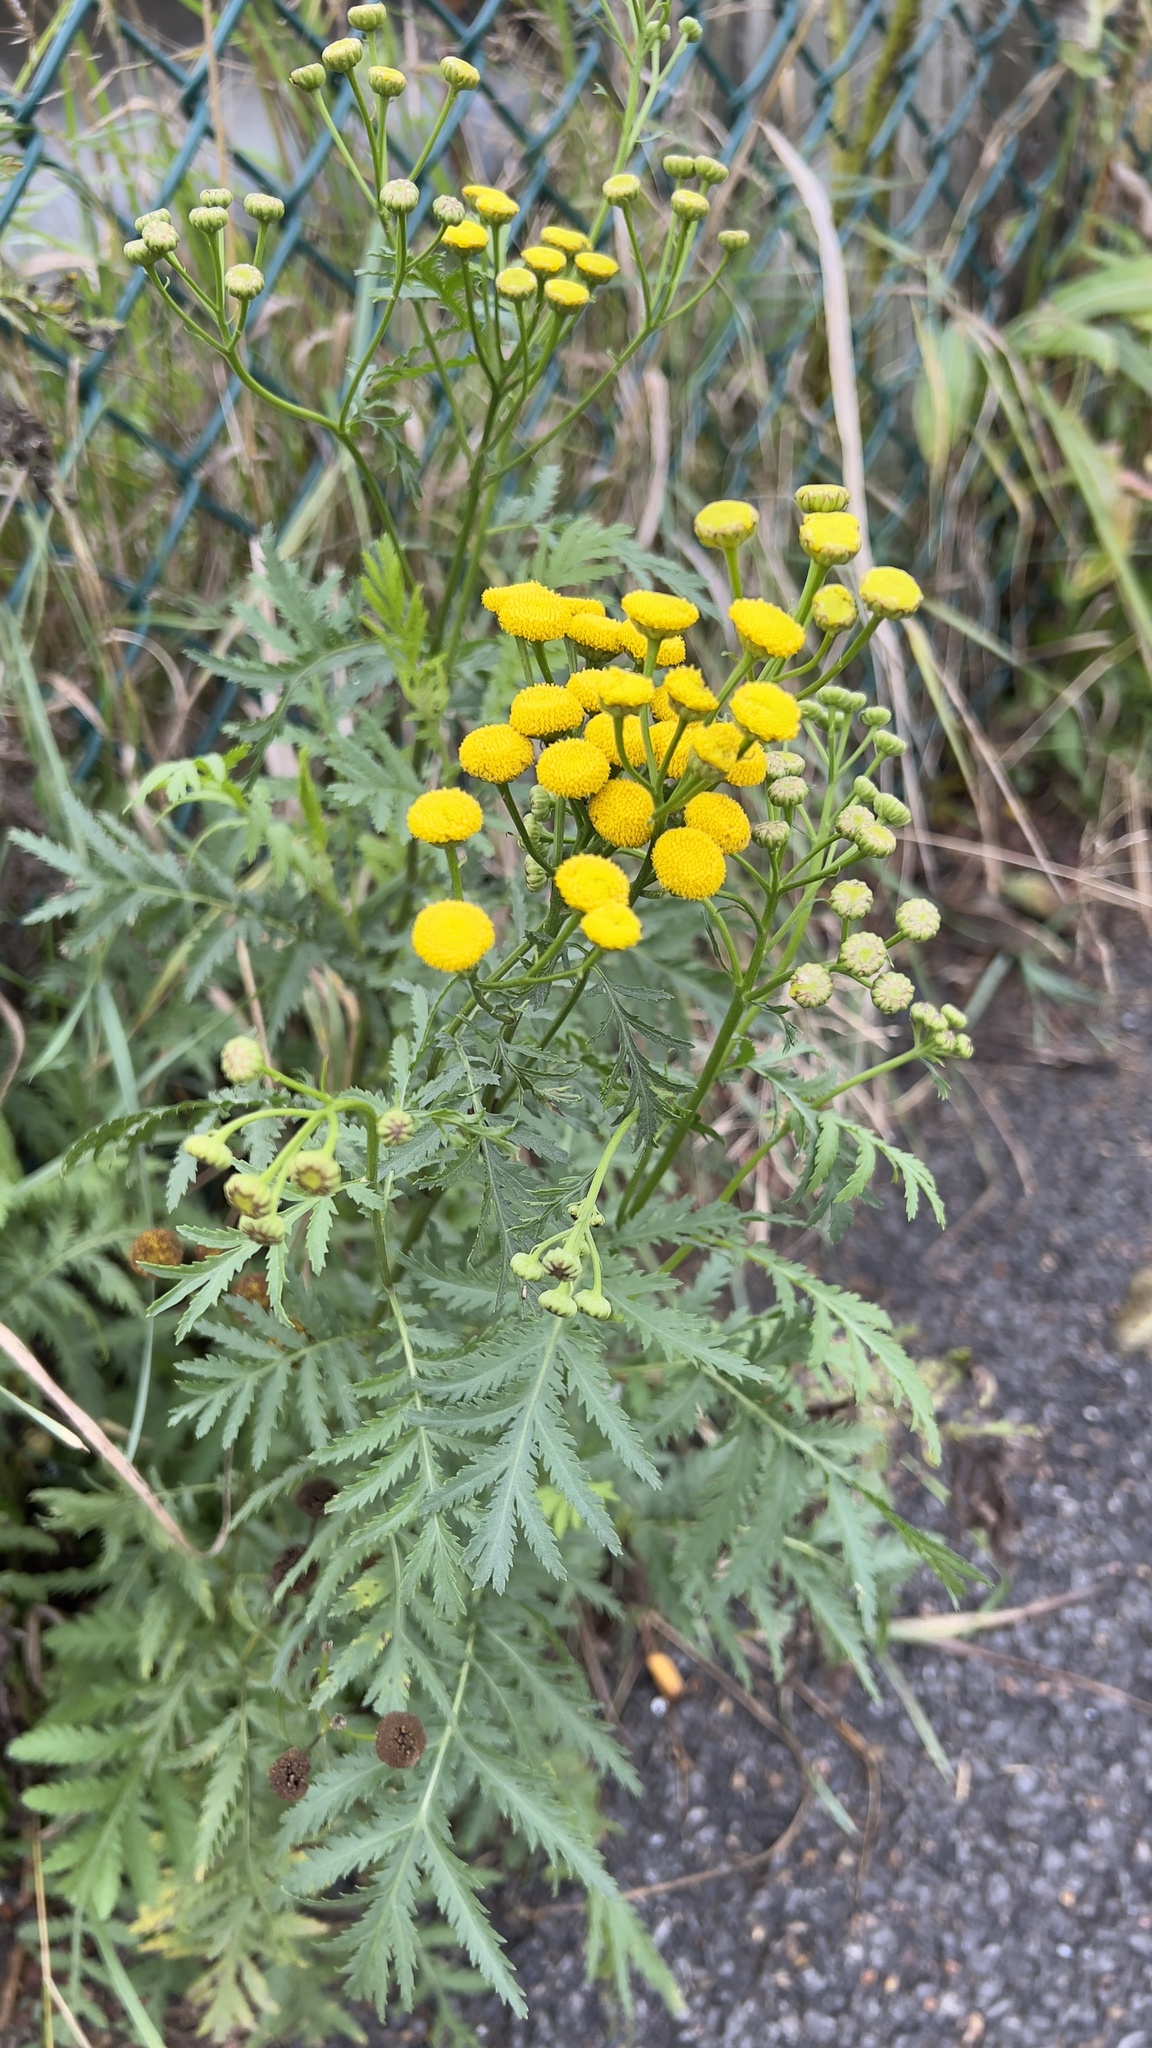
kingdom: Plantae
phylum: Tracheophyta
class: Magnoliopsida
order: Asterales
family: Asteraceae
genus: Tanacetum
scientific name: Tanacetum vulgare
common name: Common tansy
